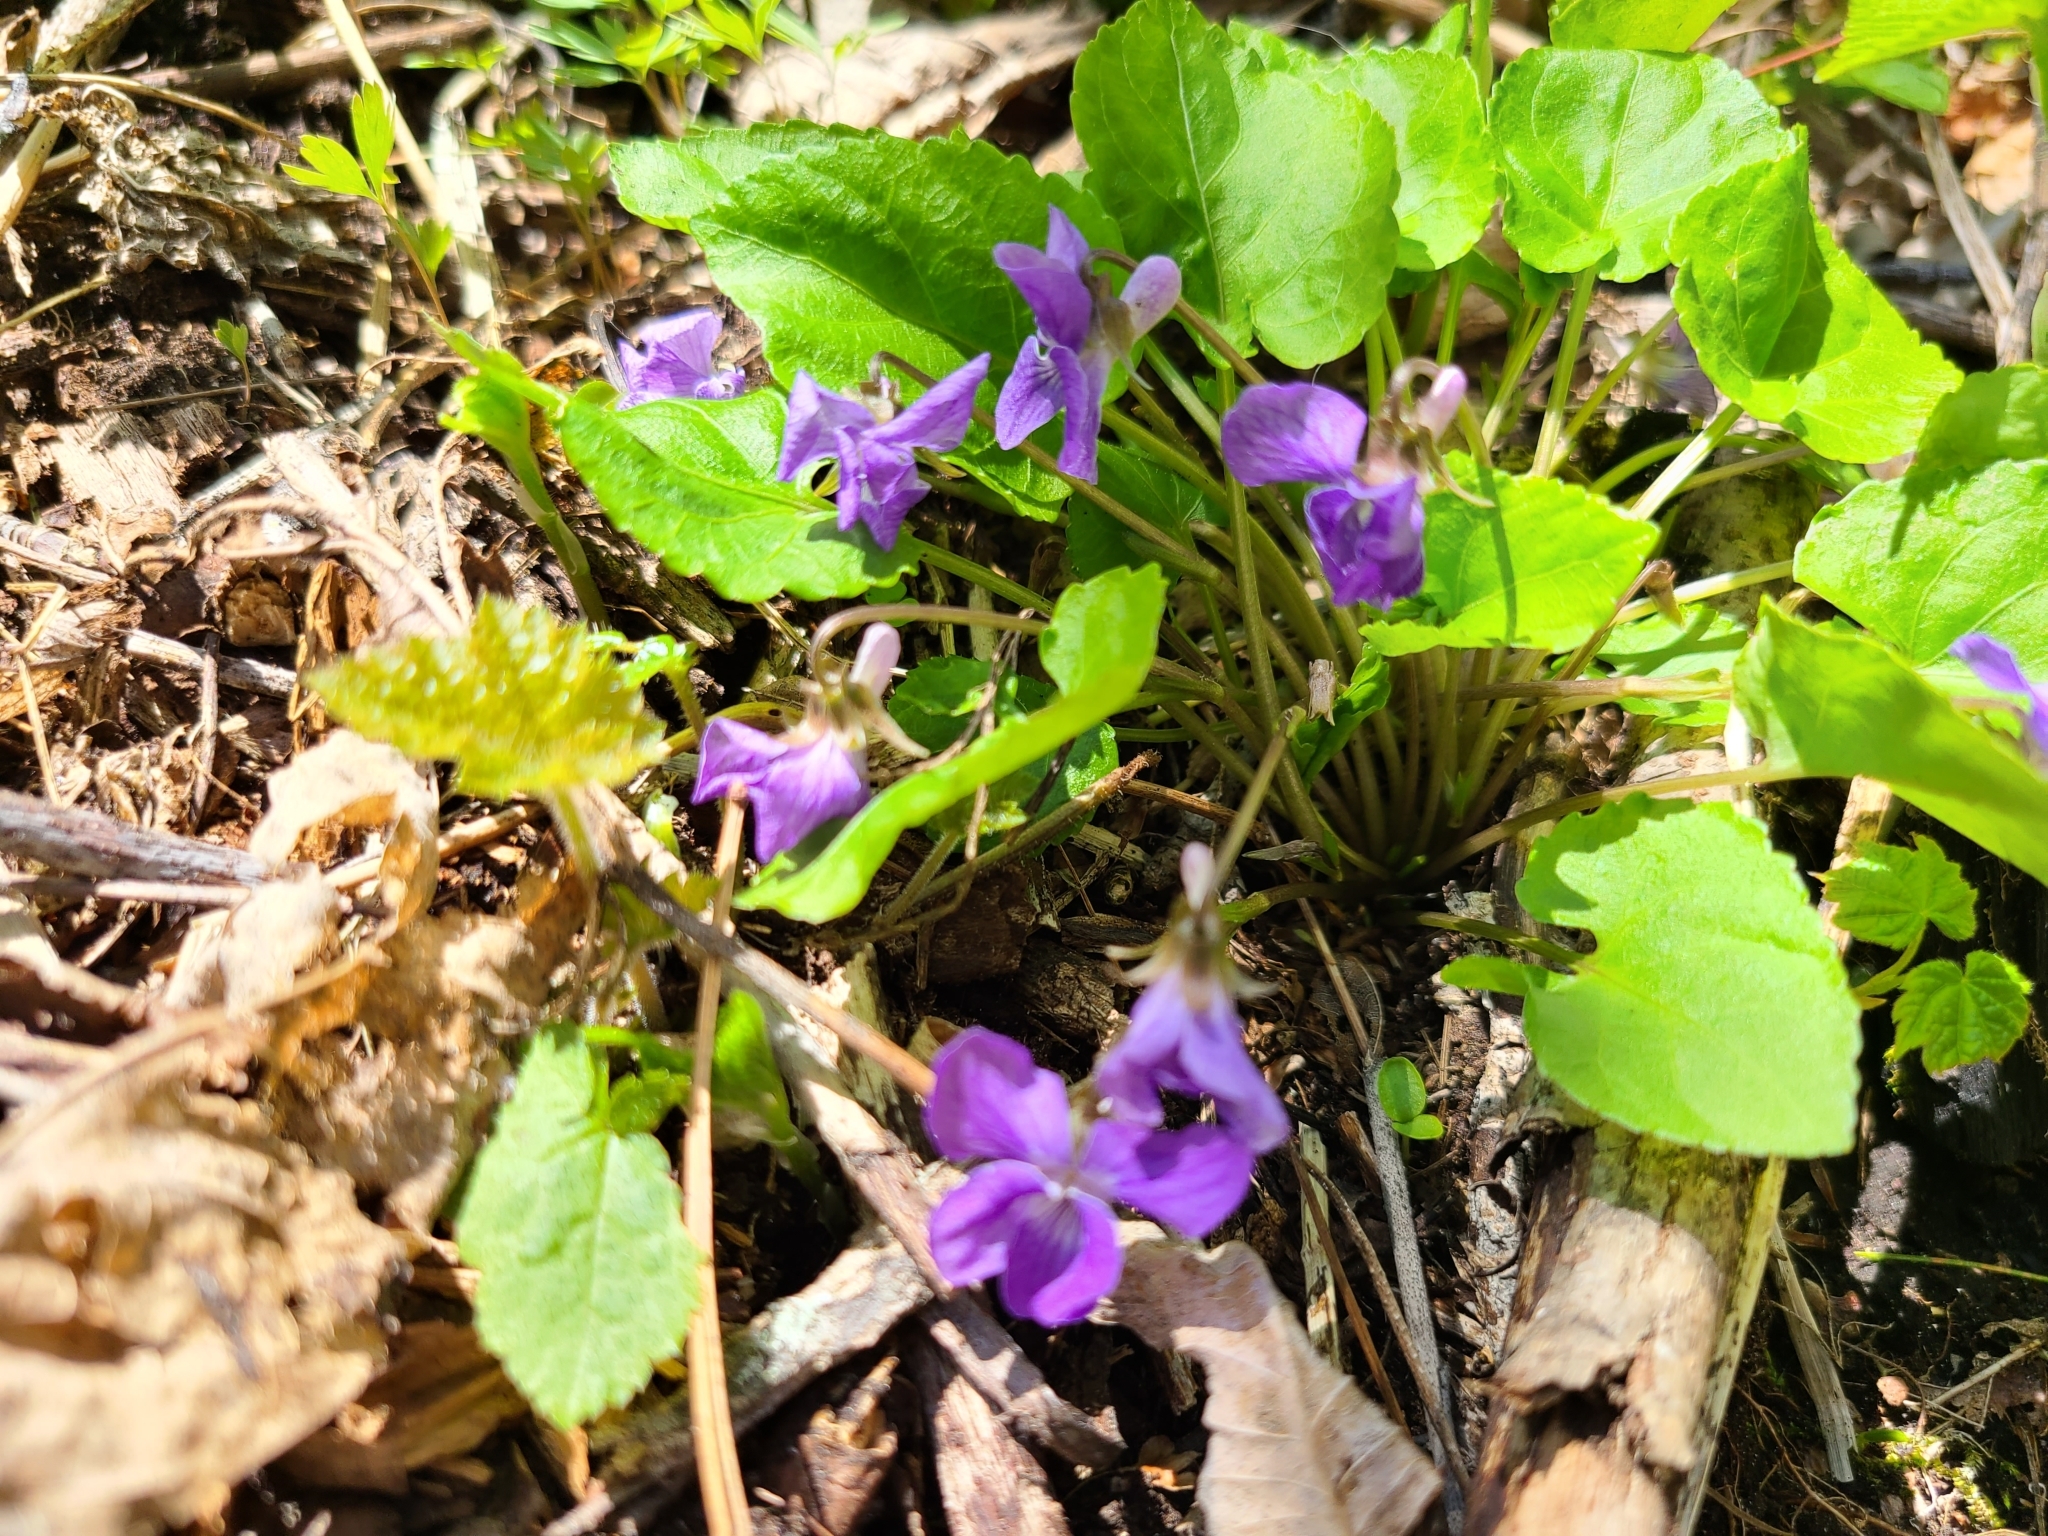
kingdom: Plantae
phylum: Tracheophyta
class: Magnoliopsida
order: Malpighiales
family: Violaceae
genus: Viola
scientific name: Viola selkirkii
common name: Selkirk's violet
